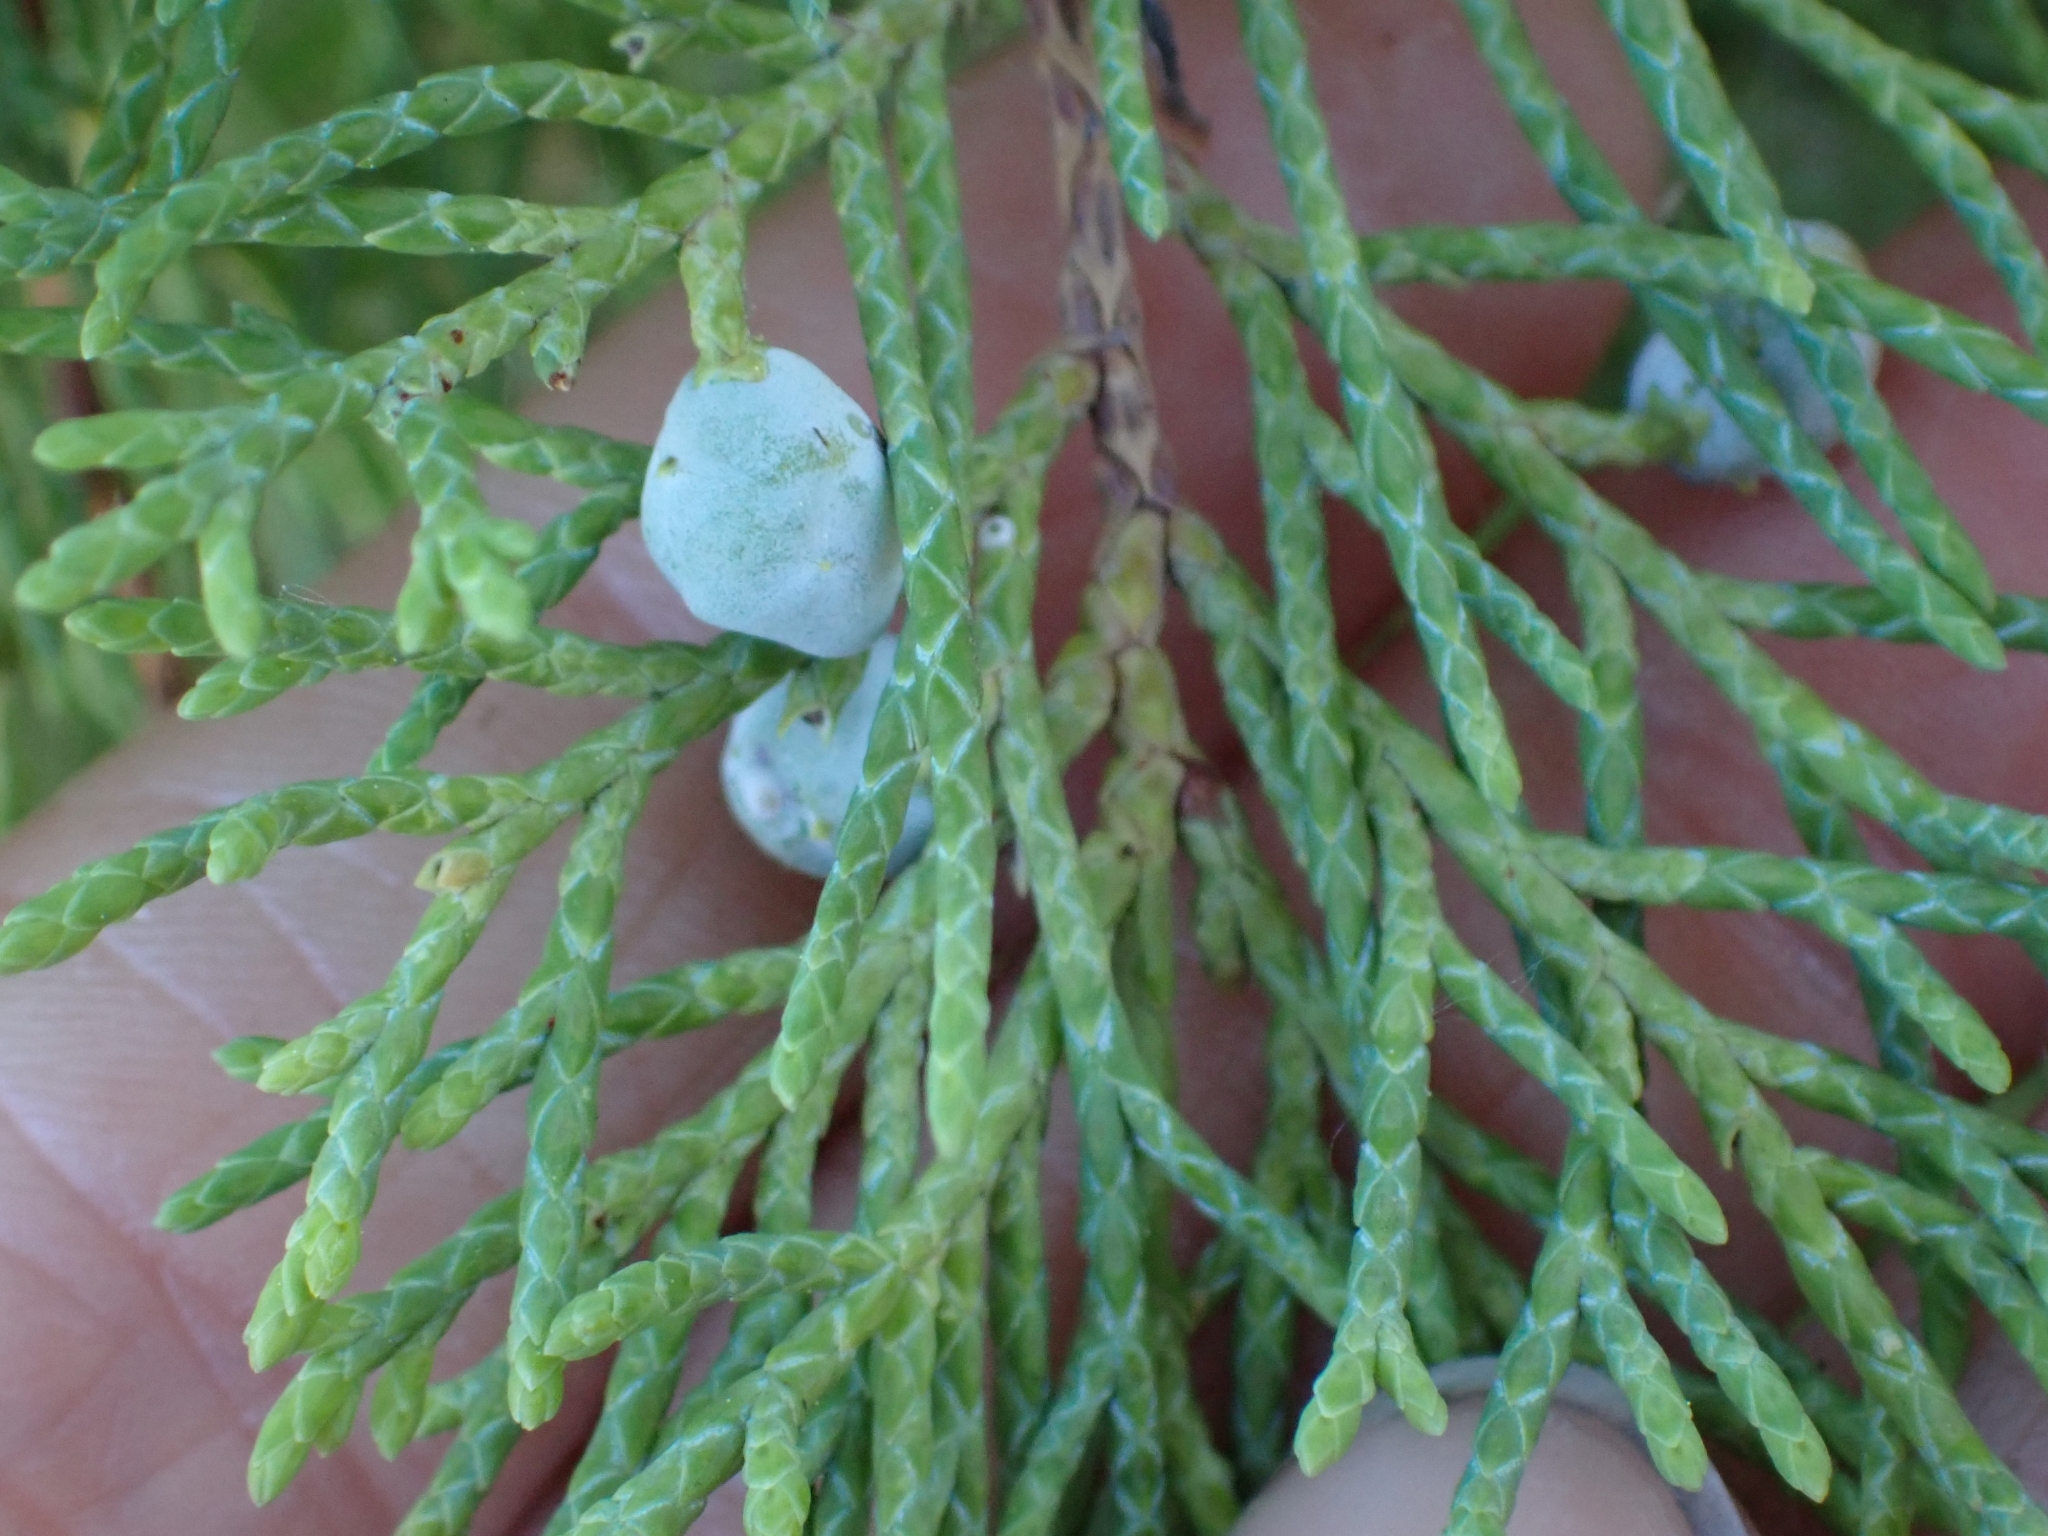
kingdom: Plantae
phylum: Tracheophyta
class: Pinopsida
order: Pinales
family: Cupressaceae
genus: Juniperus
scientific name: Juniperus scopulorum
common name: Rocky mountain juniper
